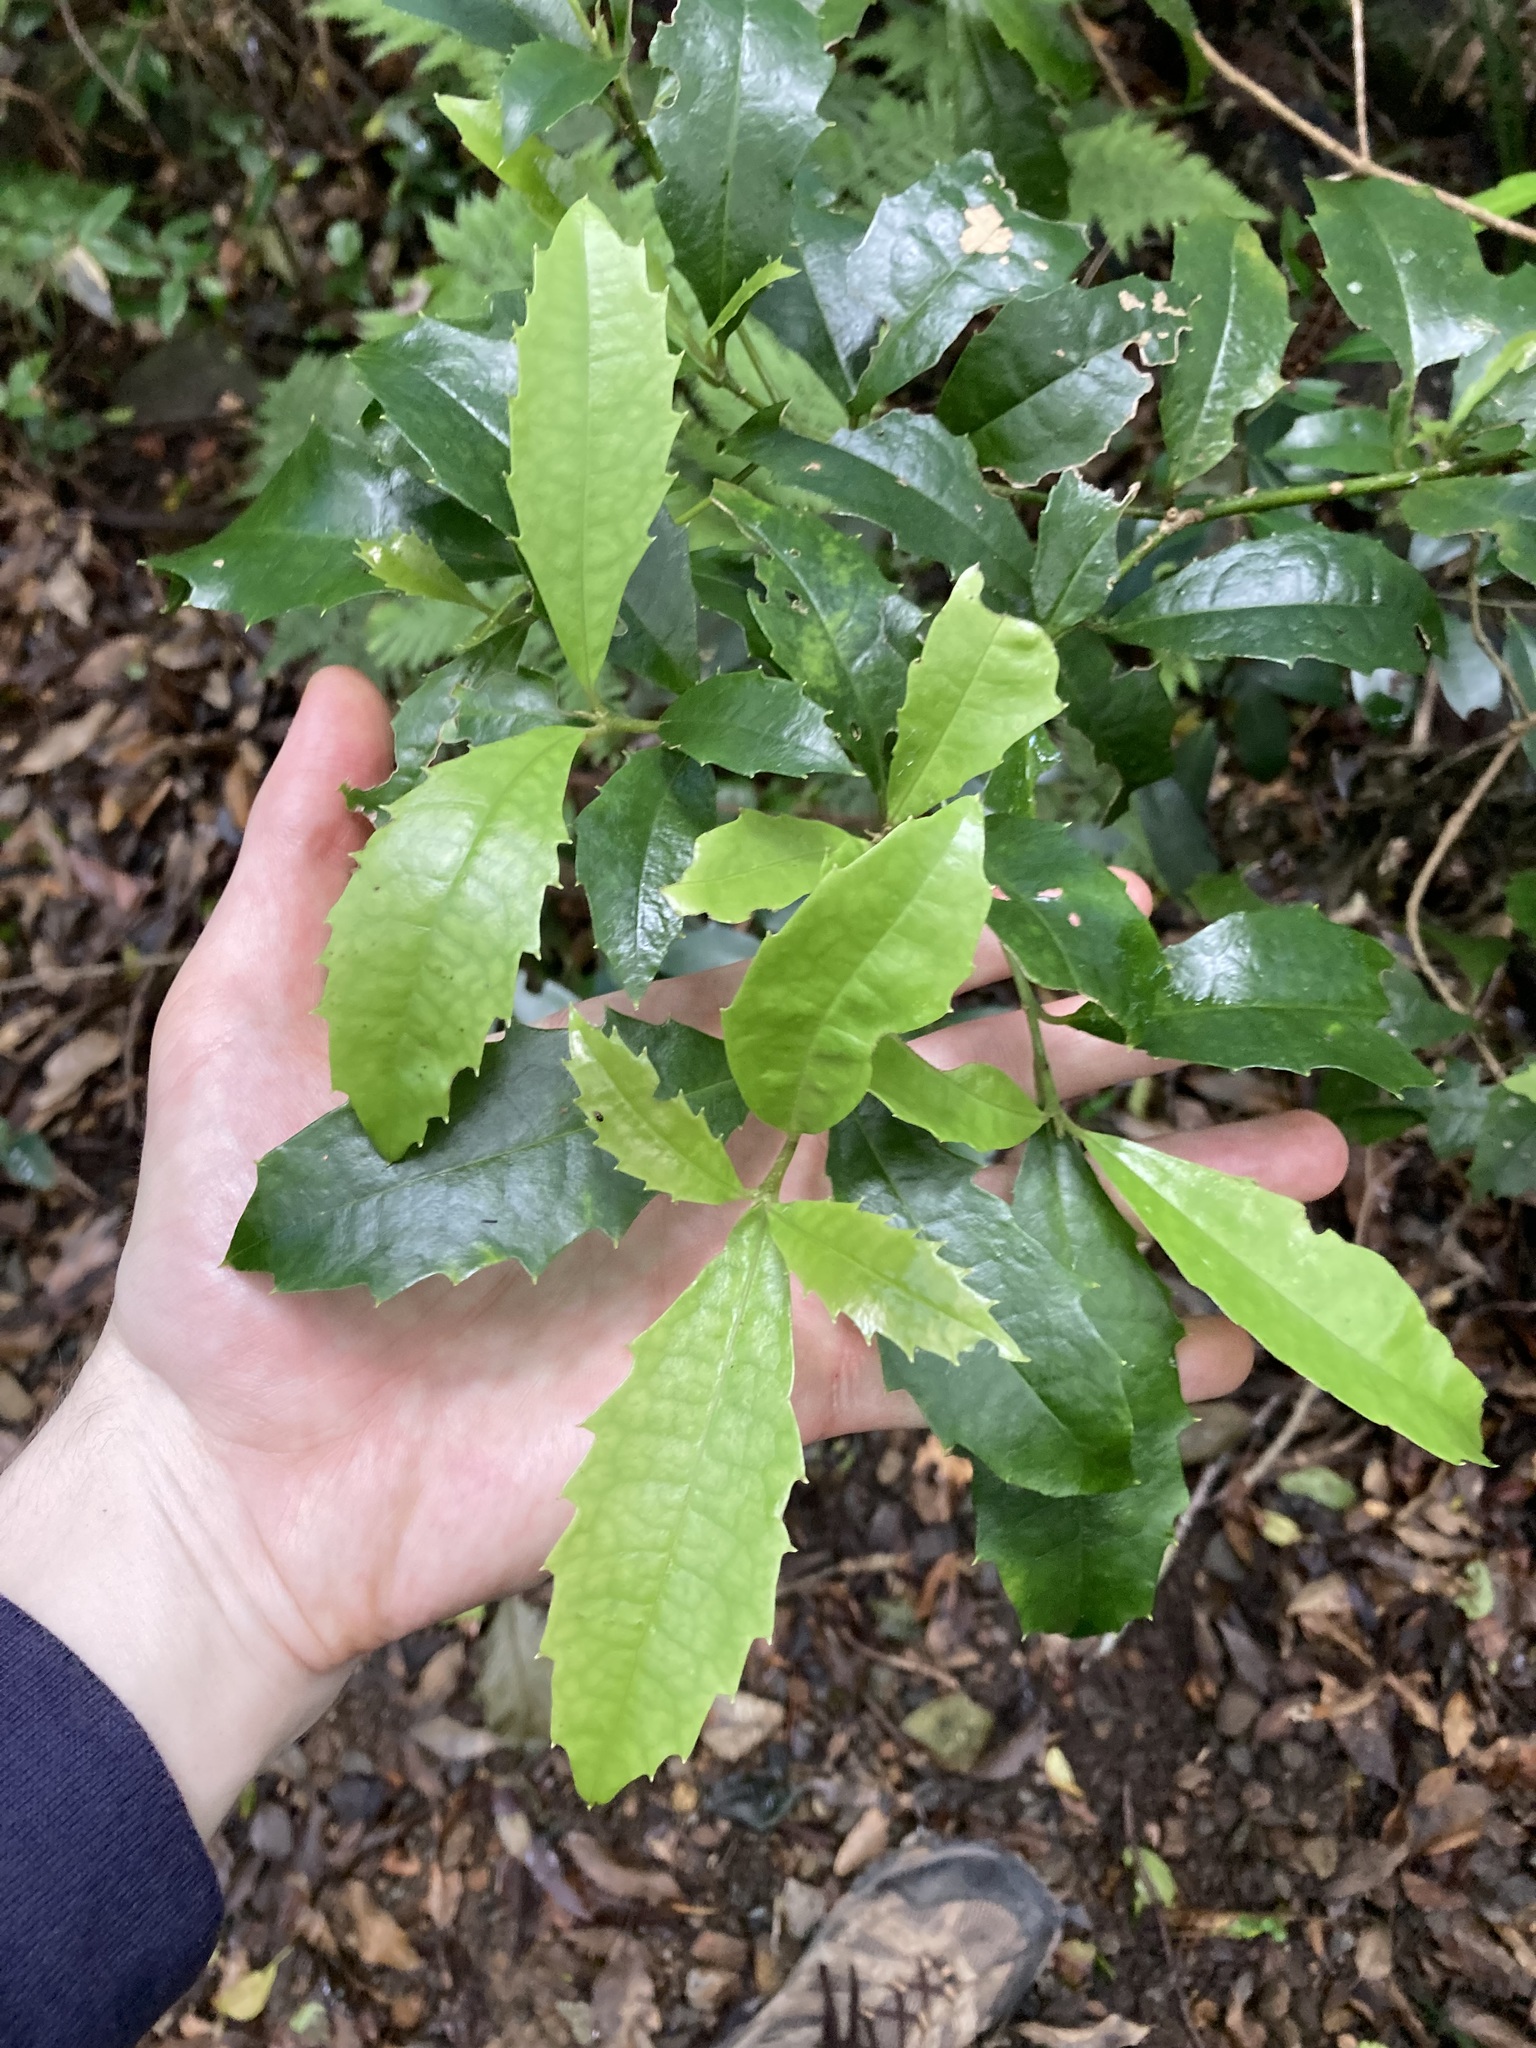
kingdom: Plantae
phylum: Tracheophyta
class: Magnoliopsida
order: Escalloniales
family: Escalloniaceae
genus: Polyosma
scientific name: Polyosma cunninghamii
